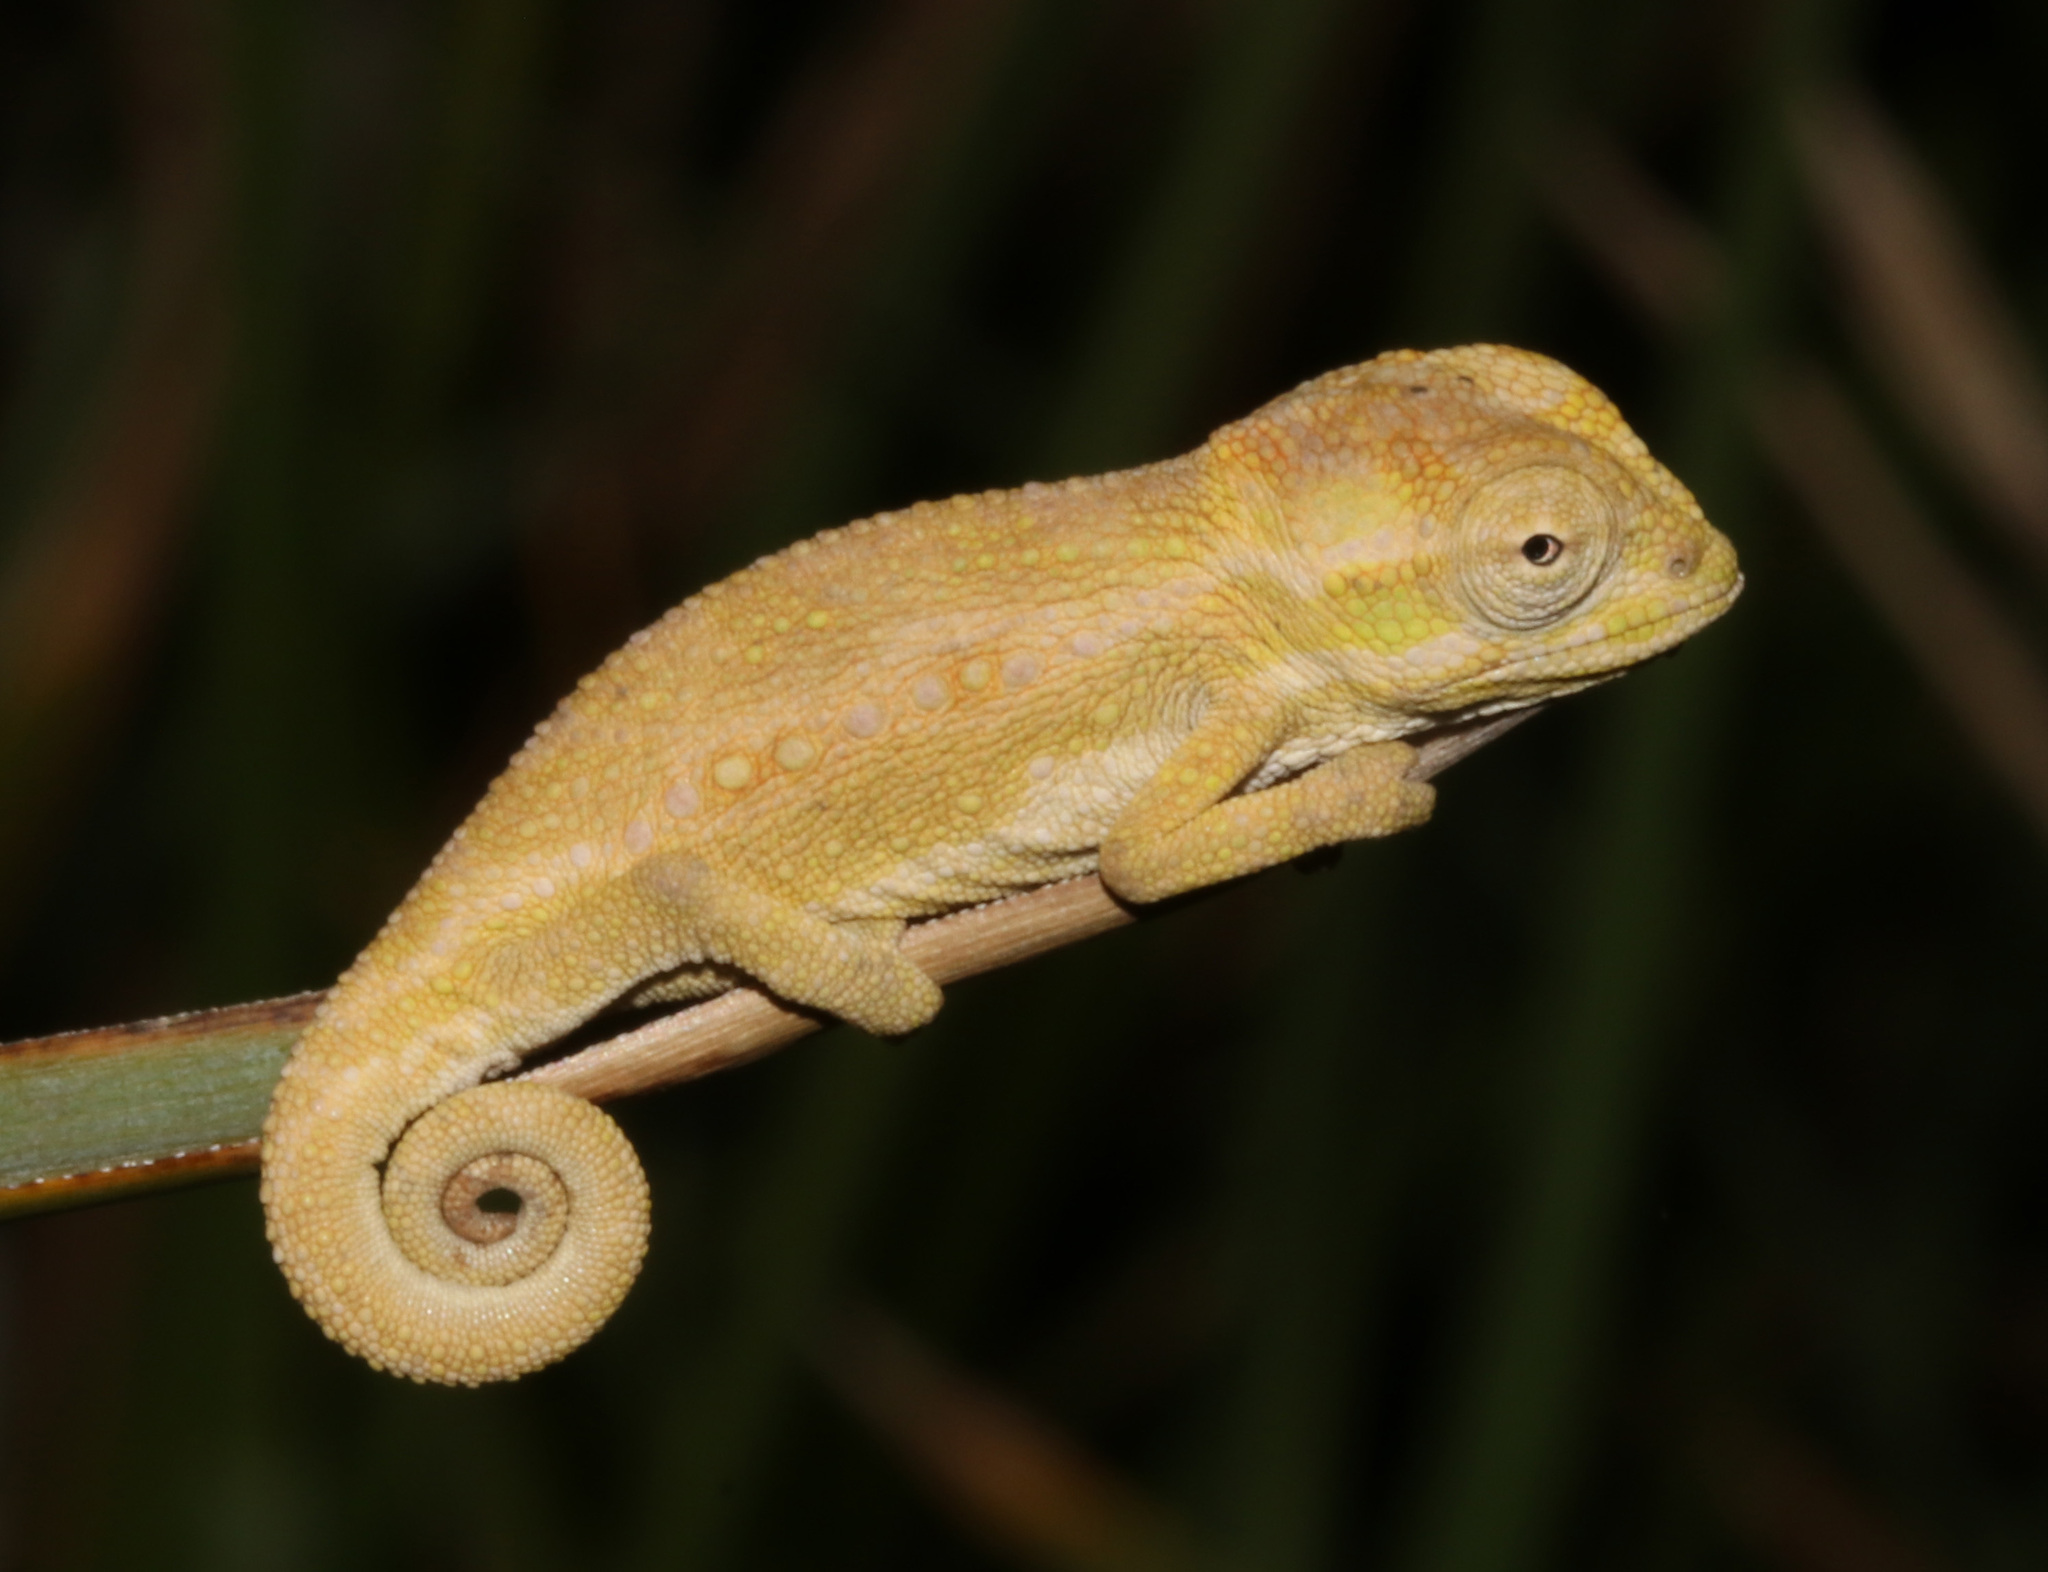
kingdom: Animalia
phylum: Chordata
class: Squamata
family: Chamaeleonidae
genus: Bradypodion
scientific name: Bradypodion pumilum
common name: Cape dwarf chameleon
